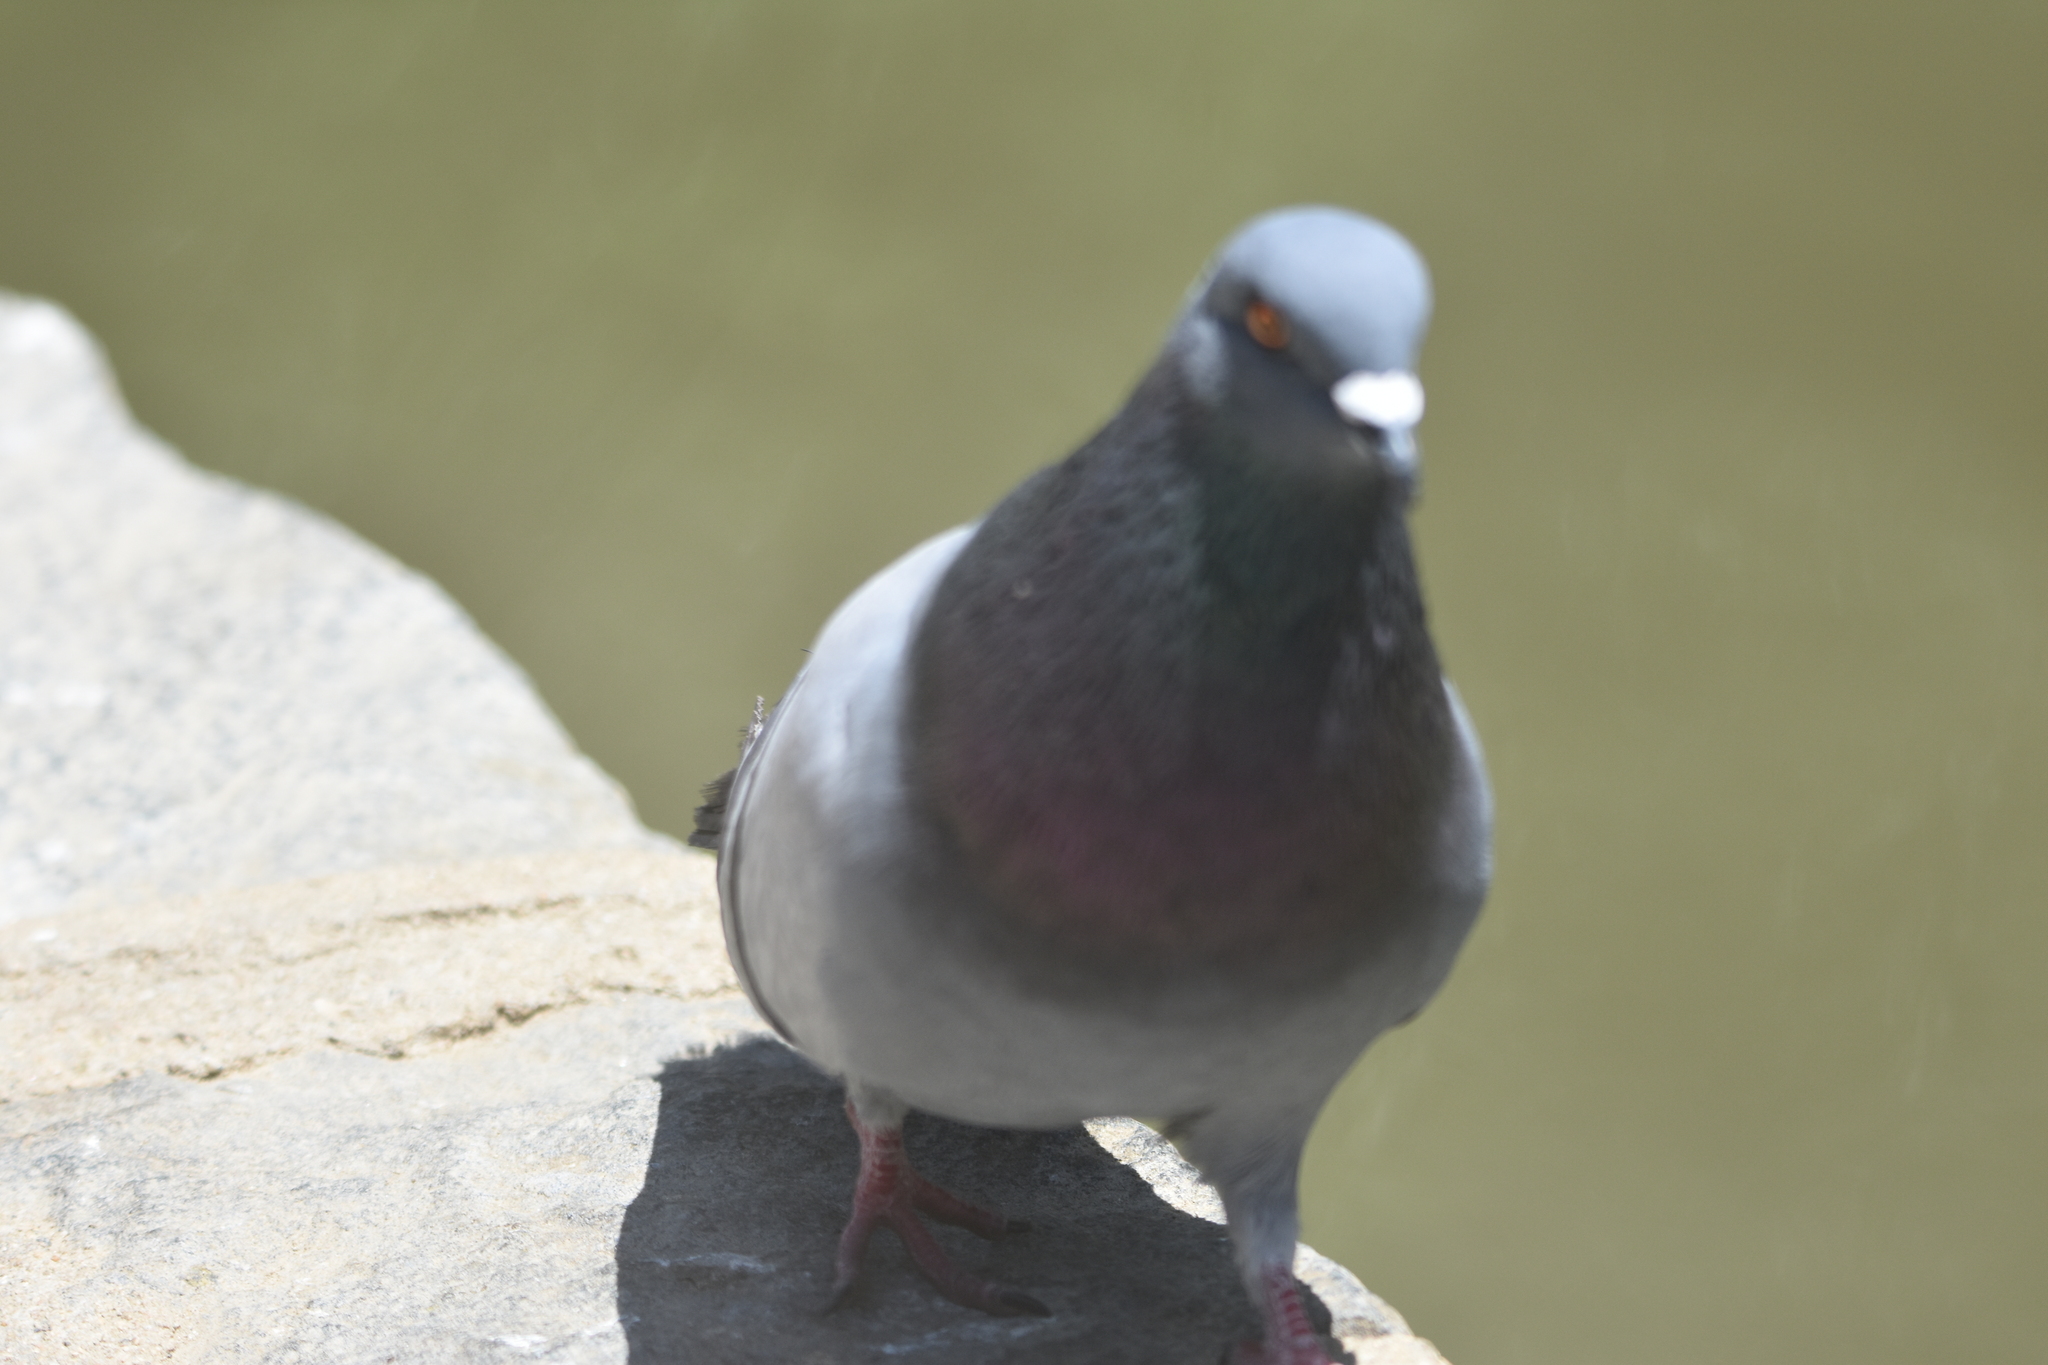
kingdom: Animalia
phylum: Chordata
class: Aves
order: Columbiformes
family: Columbidae
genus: Columba
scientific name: Columba livia
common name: Rock pigeon
